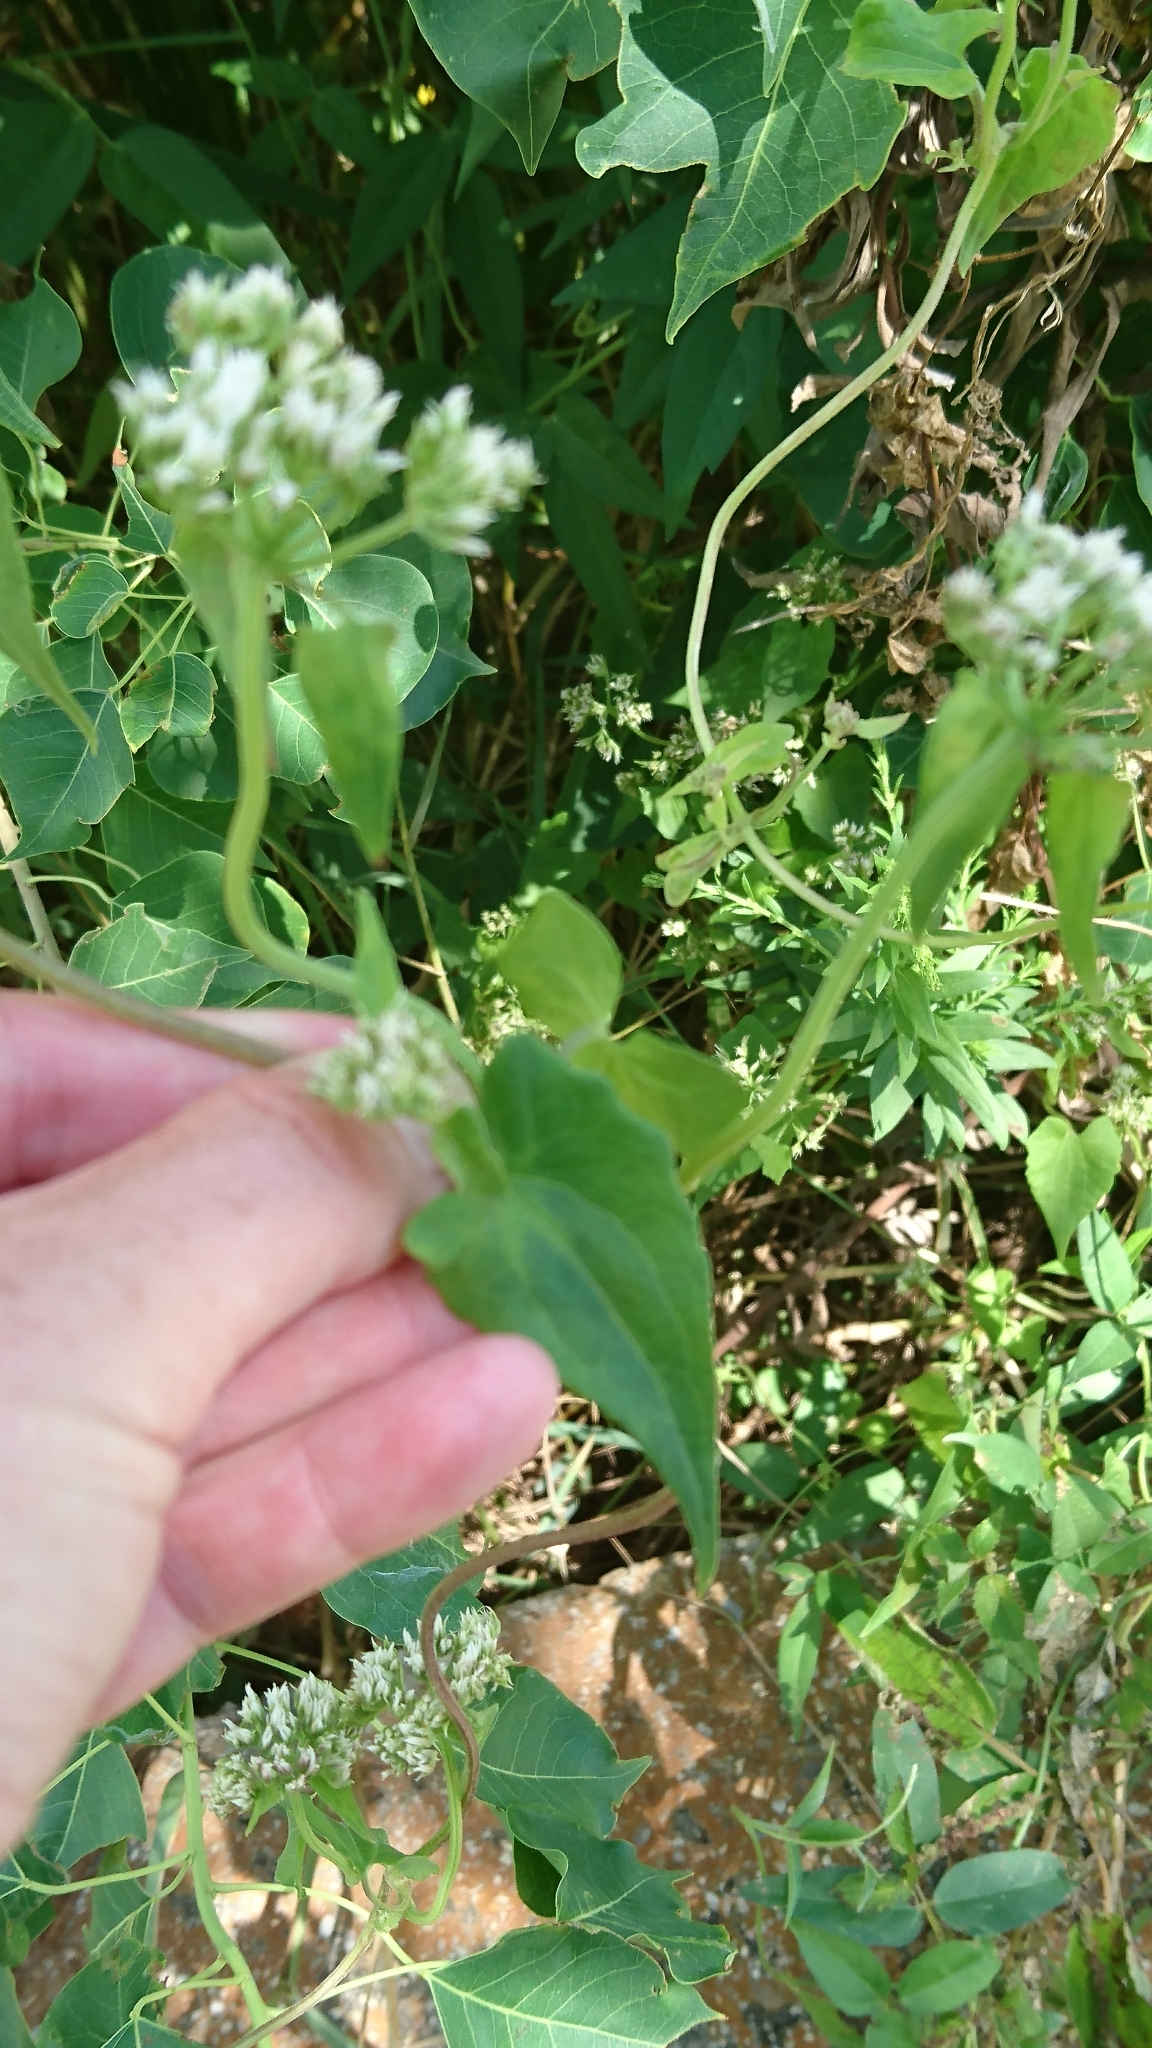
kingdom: Plantae
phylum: Tracheophyta
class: Magnoliopsida
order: Asterales
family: Asteraceae
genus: Mikania
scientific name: Mikania scandens
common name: Climbing hempvine
